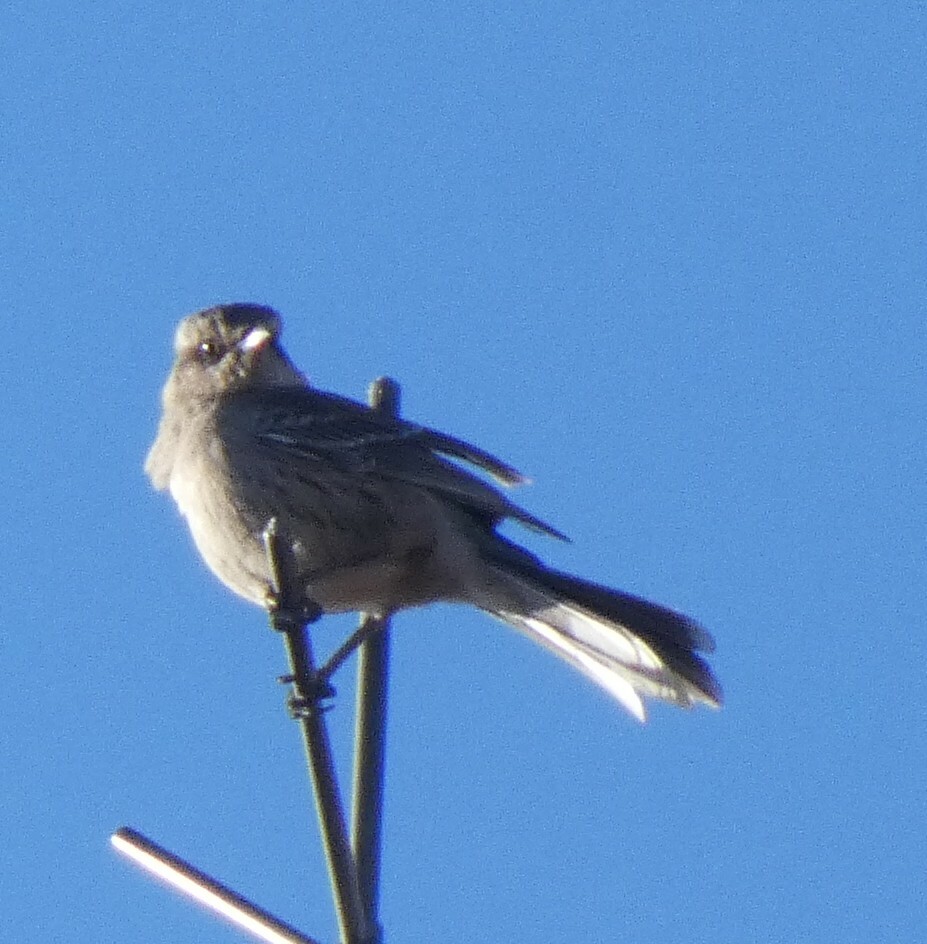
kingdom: Animalia
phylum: Chordata
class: Aves
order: Passeriformes
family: Mimidae
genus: Mimus
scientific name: Mimus saturninus
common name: Chalk-browed mockingbird
